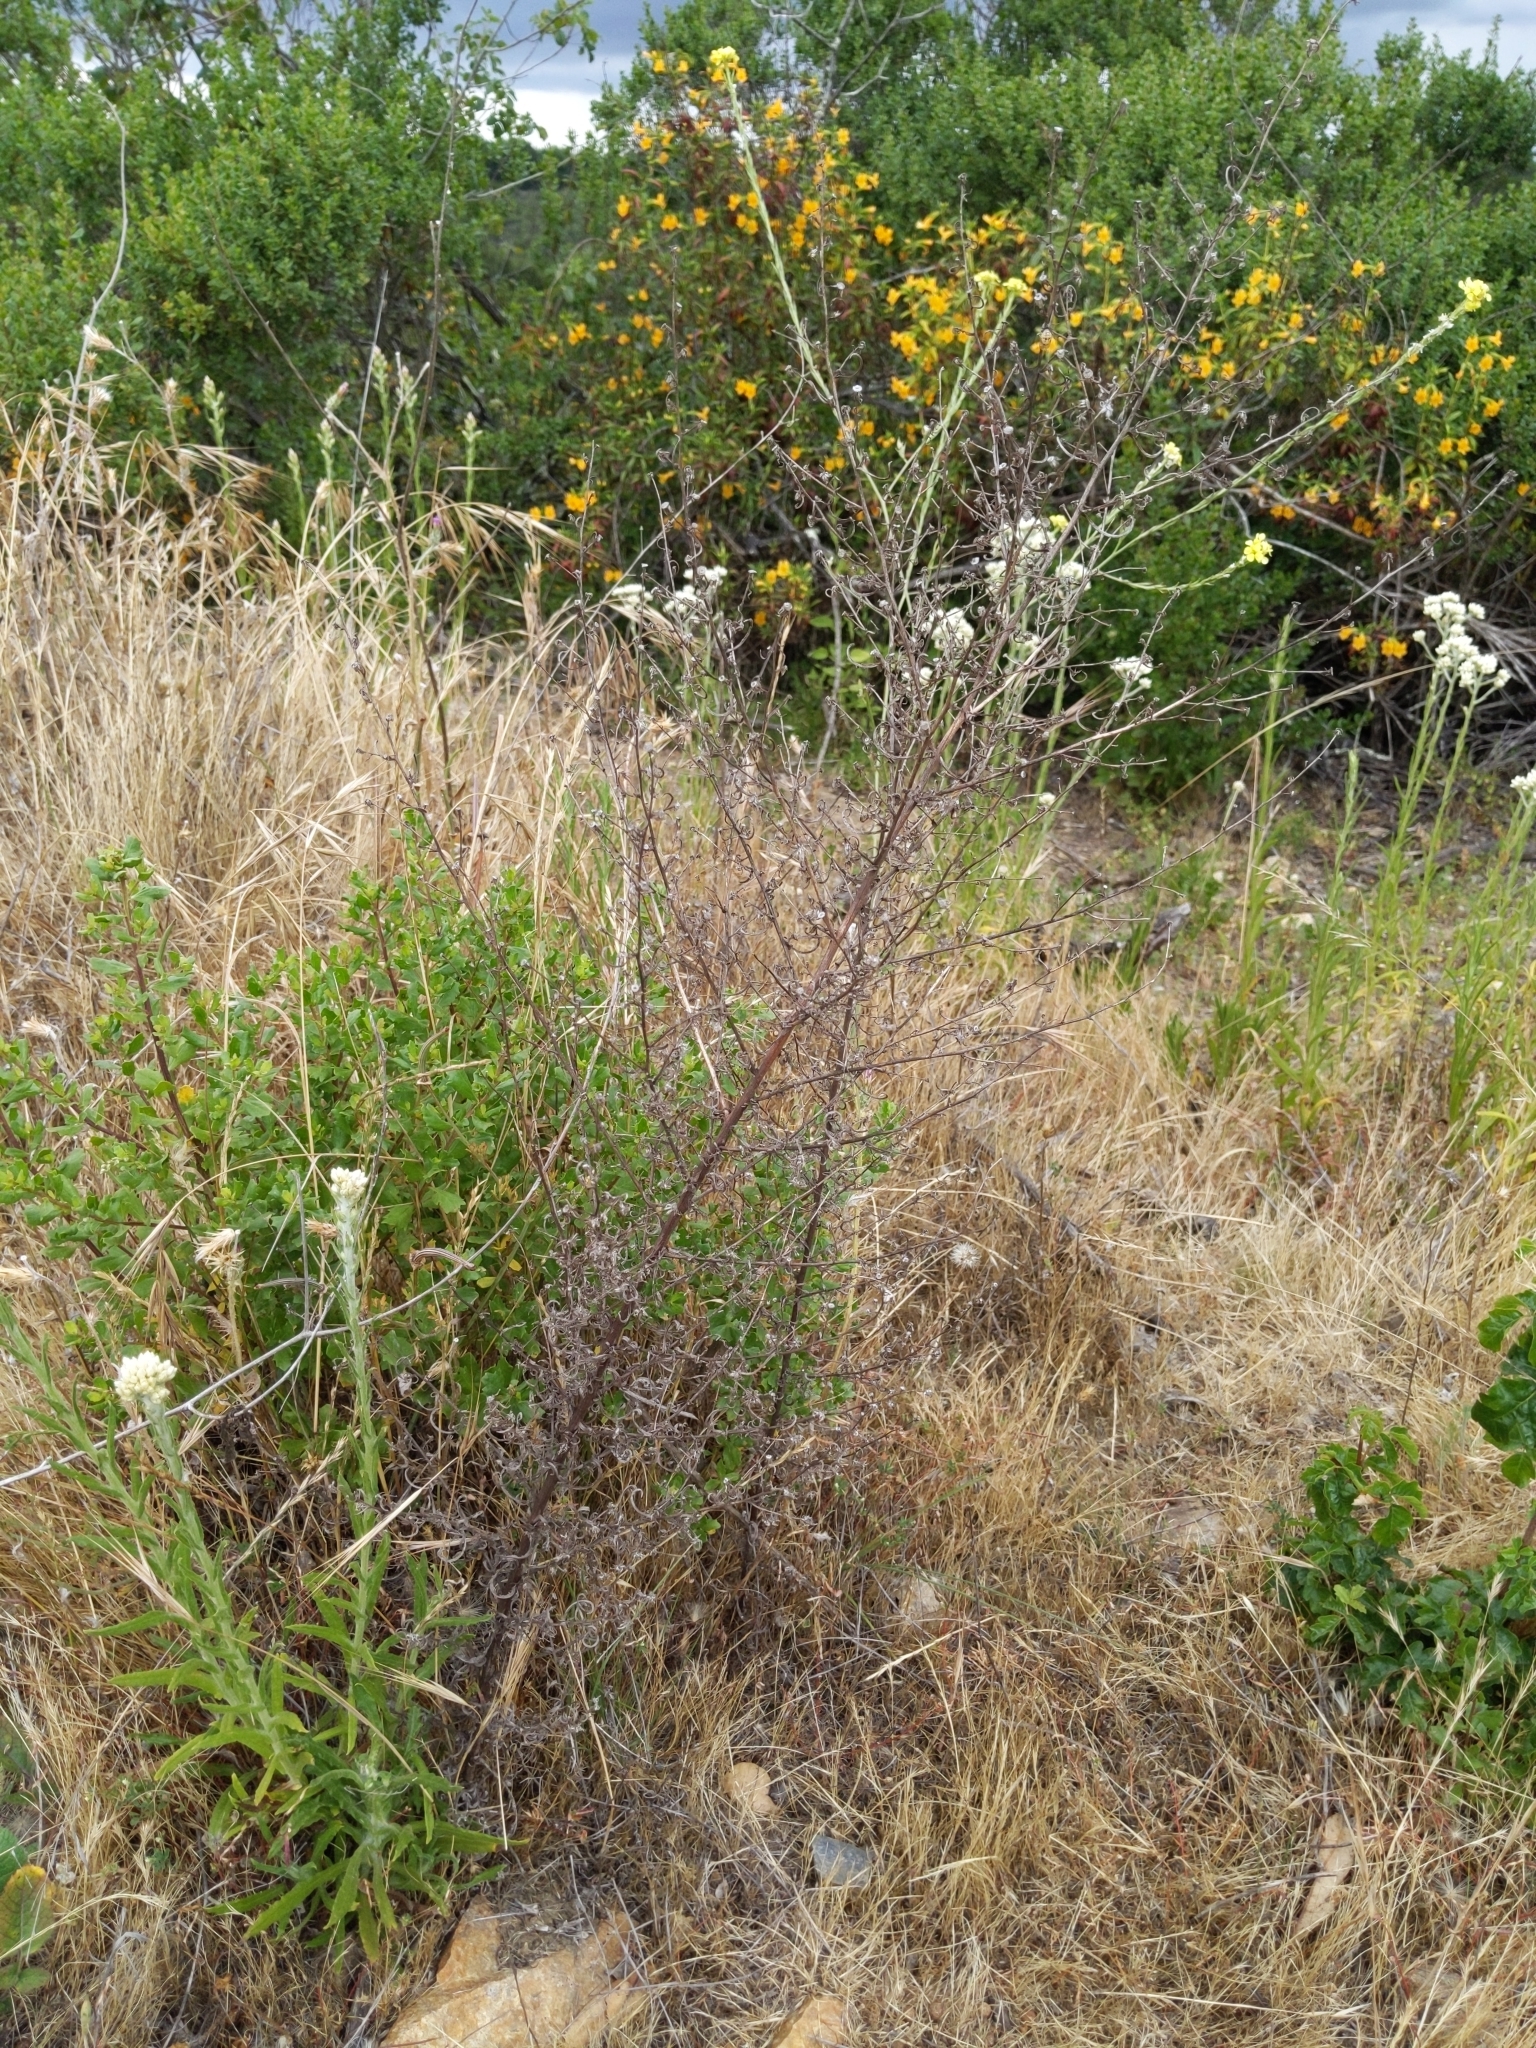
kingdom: Plantae
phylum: Tracheophyta
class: Magnoliopsida
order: Asterales
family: Asteraceae
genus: Dittrichia
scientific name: Dittrichia graveolens
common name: Stinking fleabane
